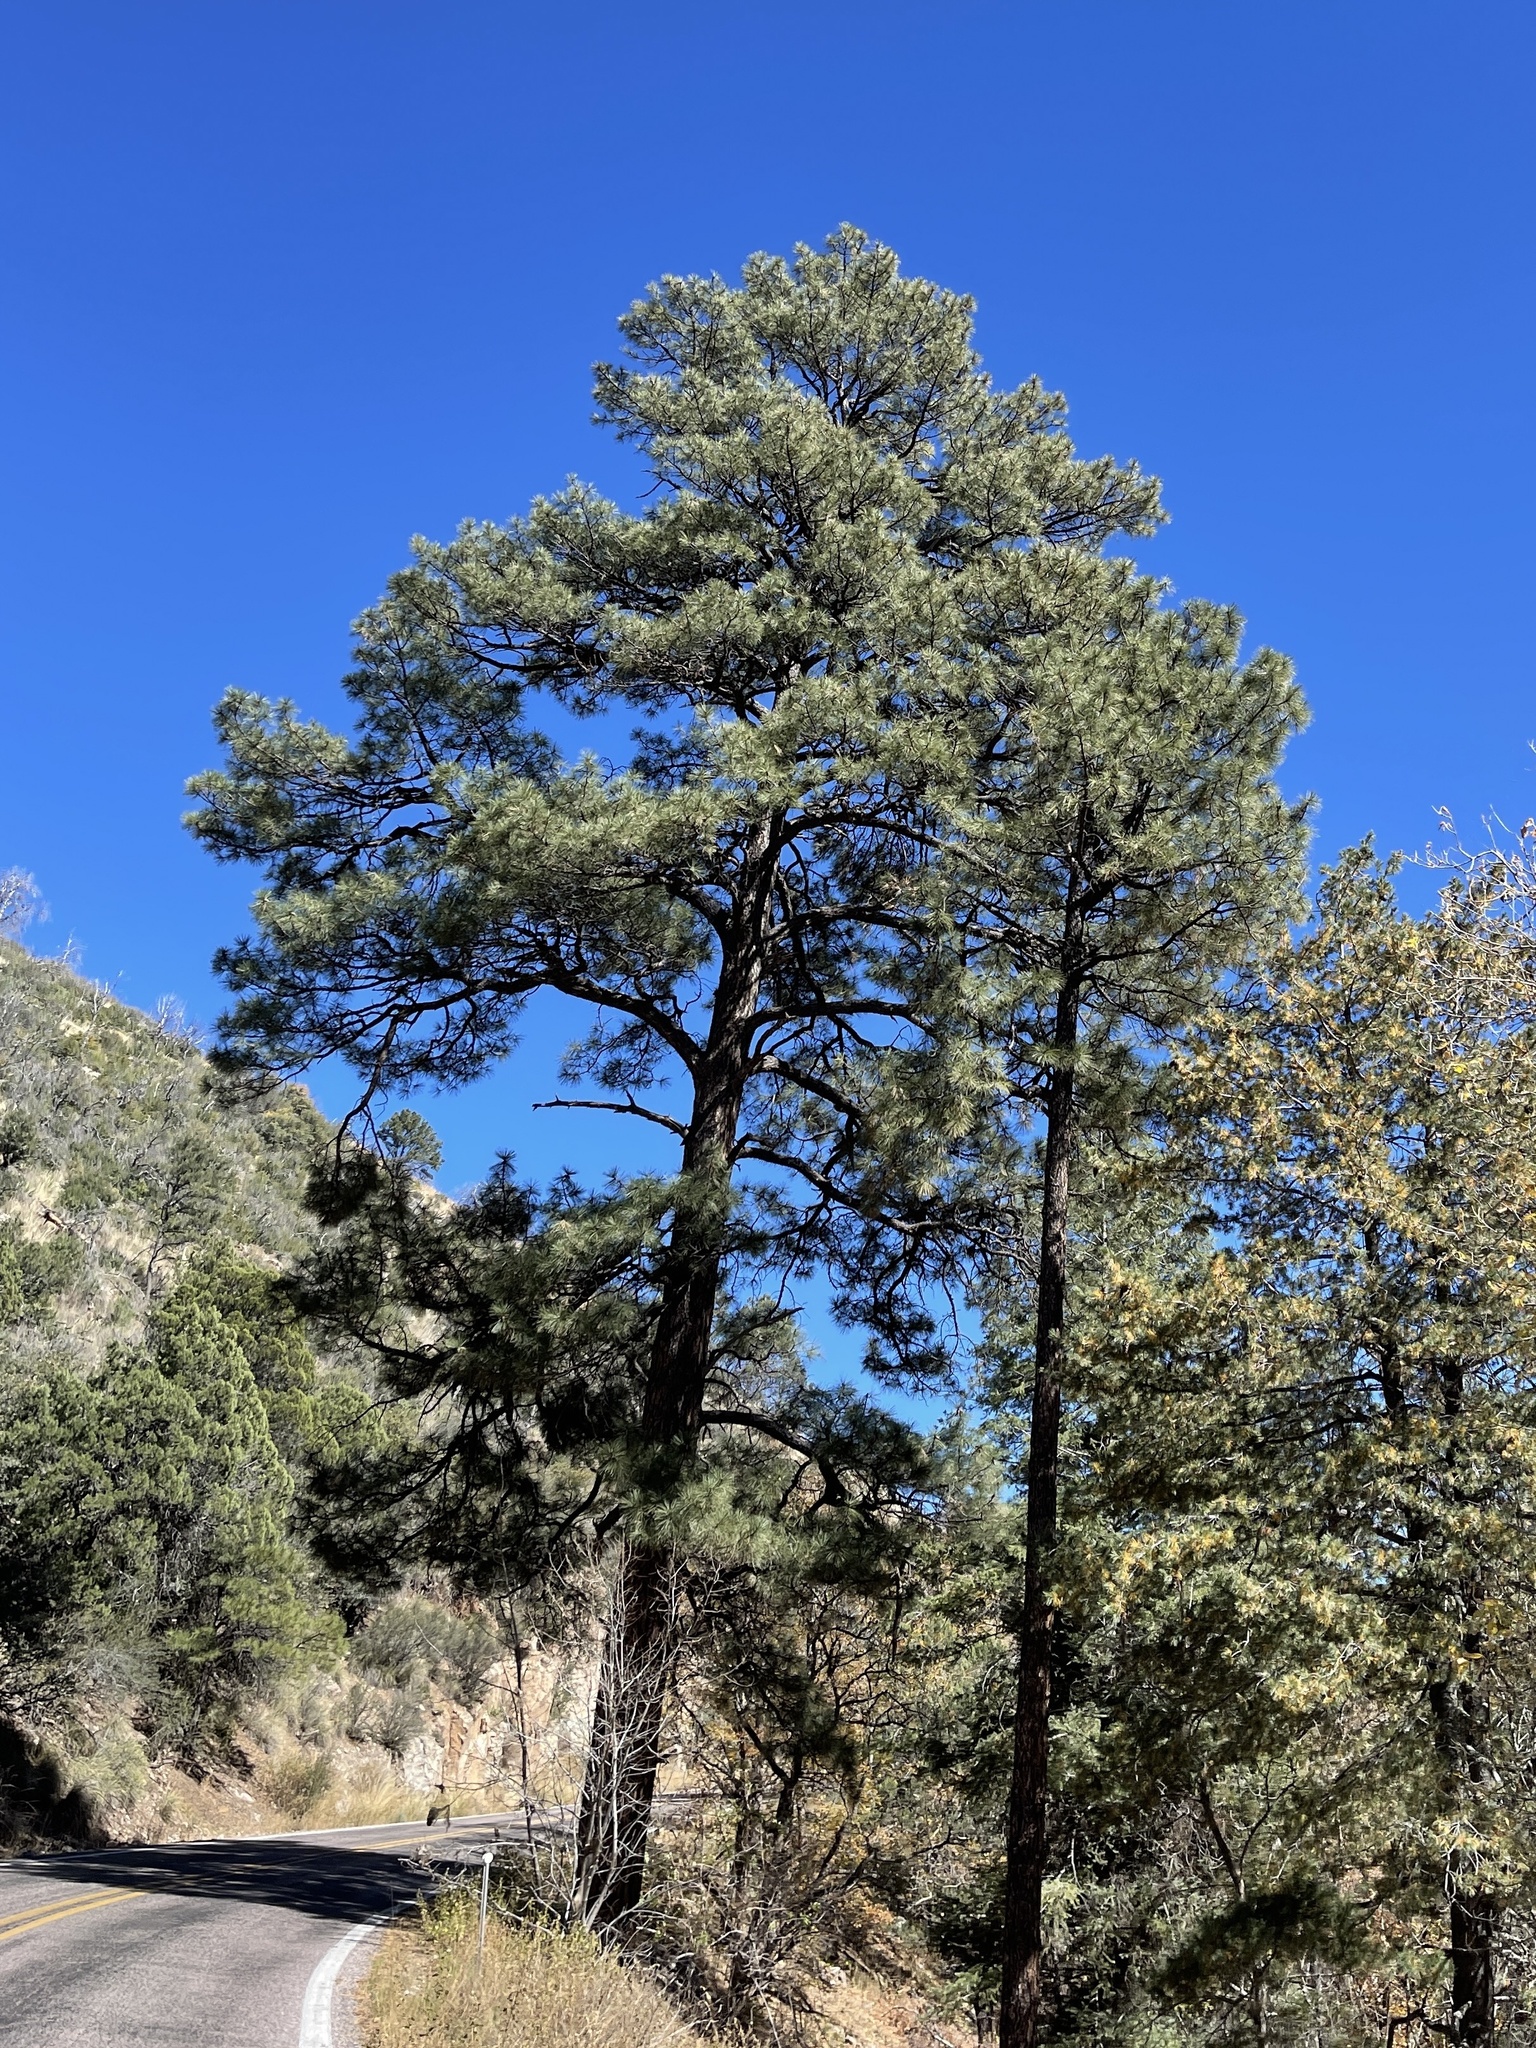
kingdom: Plantae
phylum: Tracheophyta
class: Pinopsida
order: Pinales
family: Pinaceae
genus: Pinus
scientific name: Pinus ponderosa
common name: Western yellow-pine
